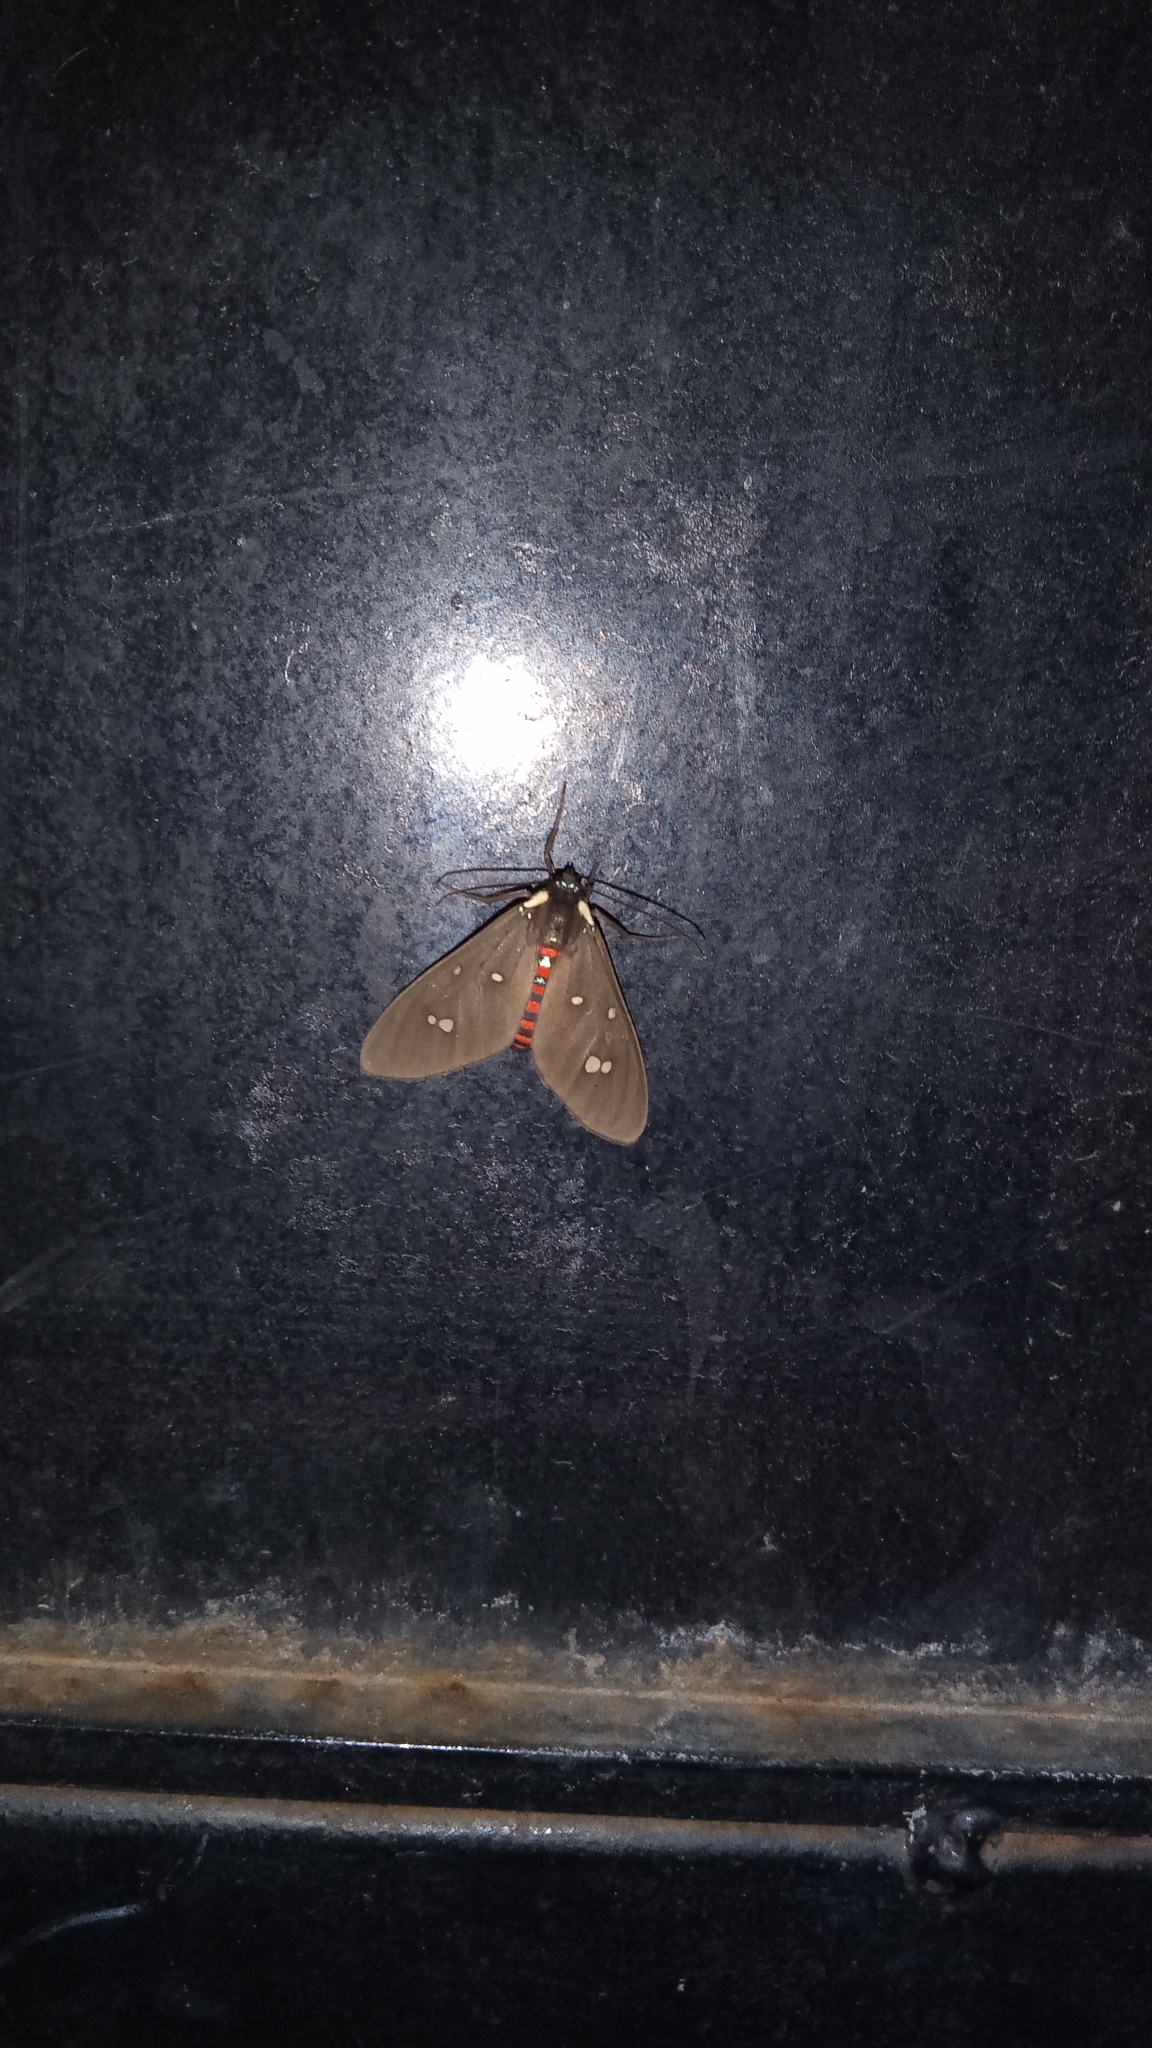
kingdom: Animalia
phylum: Arthropoda
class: Insecta
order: Lepidoptera
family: Erebidae
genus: Euclera
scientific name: Euclera
